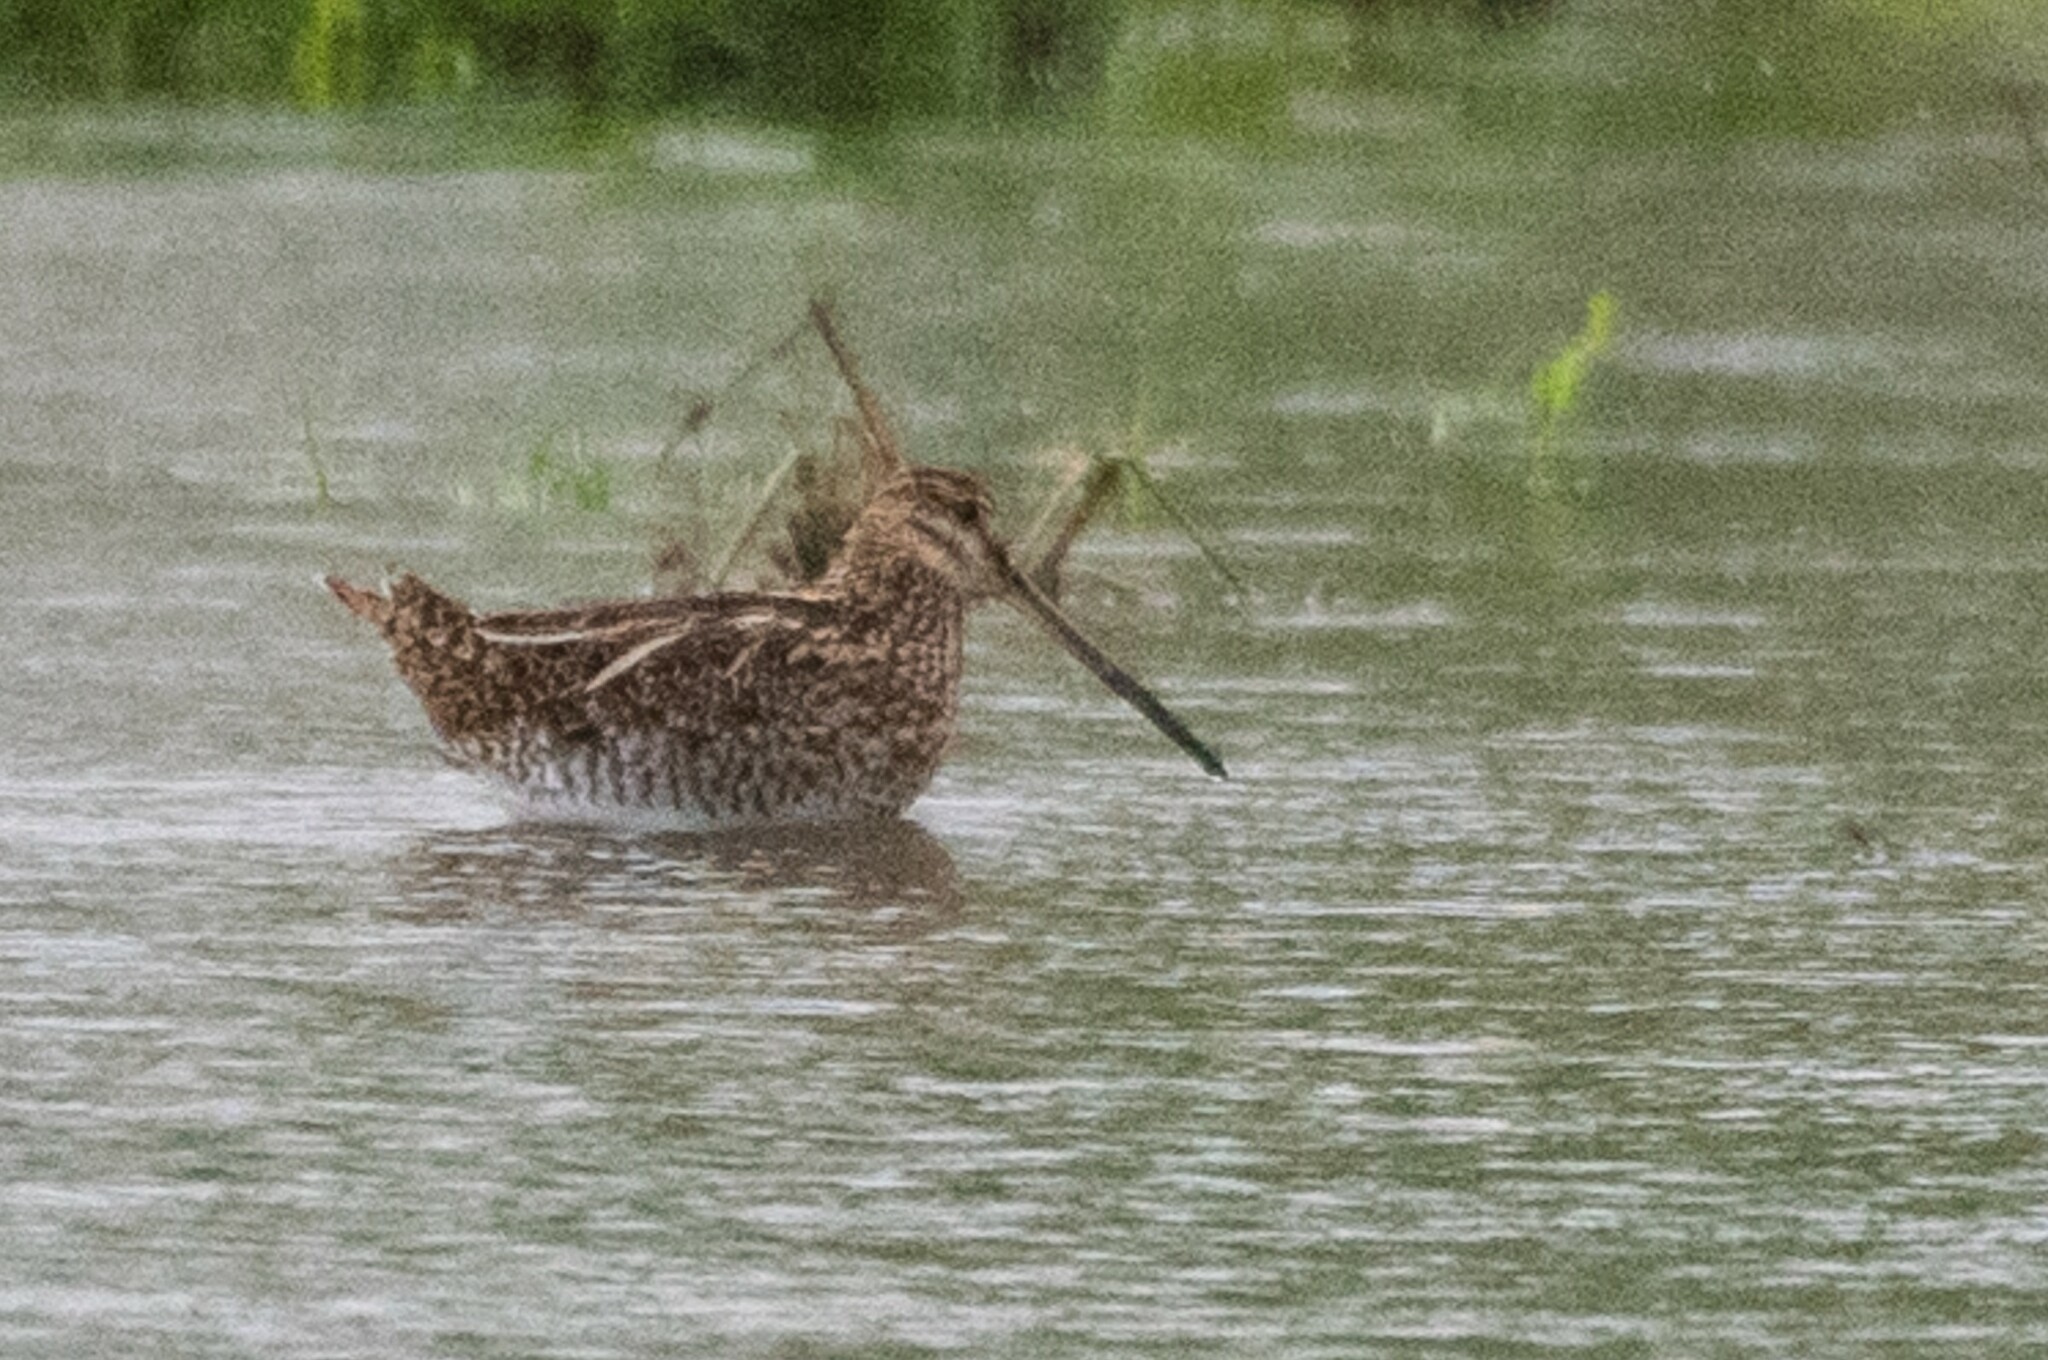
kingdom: Animalia
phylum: Chordata
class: Aves
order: Charadriiformes
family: Scolopacidae
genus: Gallinago
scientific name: Gallinago gallinago
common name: Common snipe
